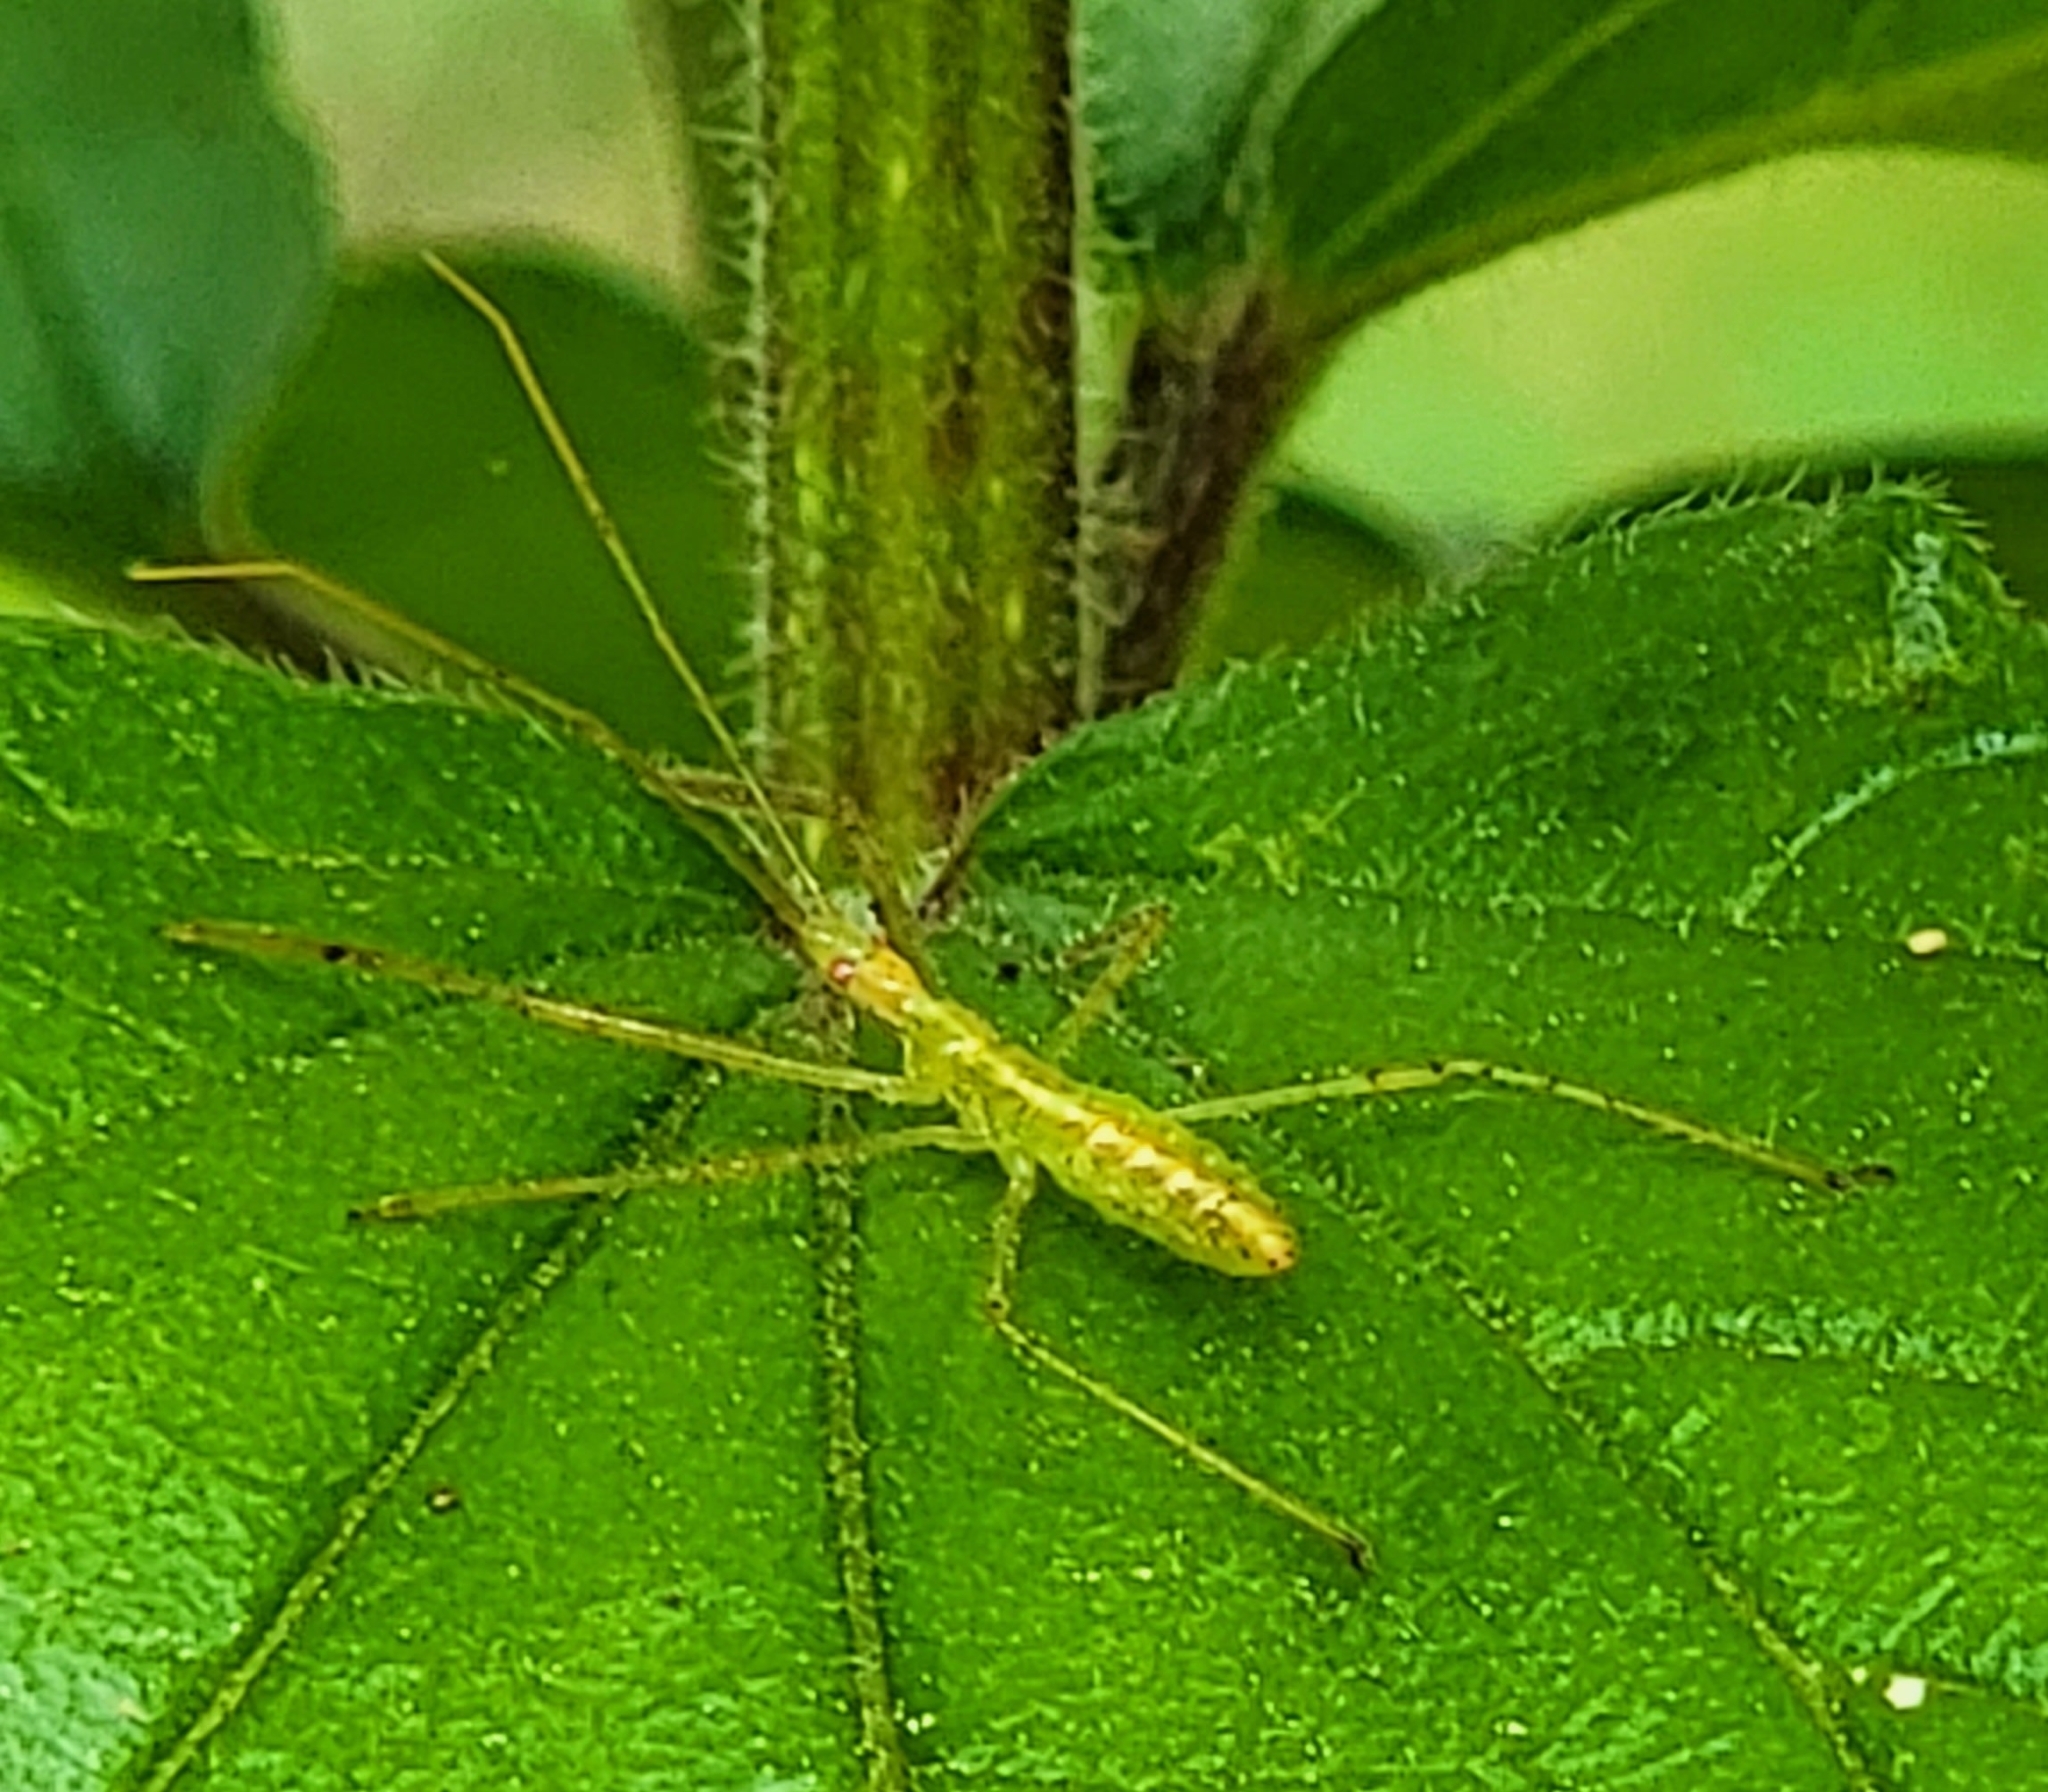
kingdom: Animalia
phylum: Arthropoda
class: Insecta
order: Hemiptera
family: Reduviidae
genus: Zelus
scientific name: Zelus luridus
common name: Pale green assassin bug
